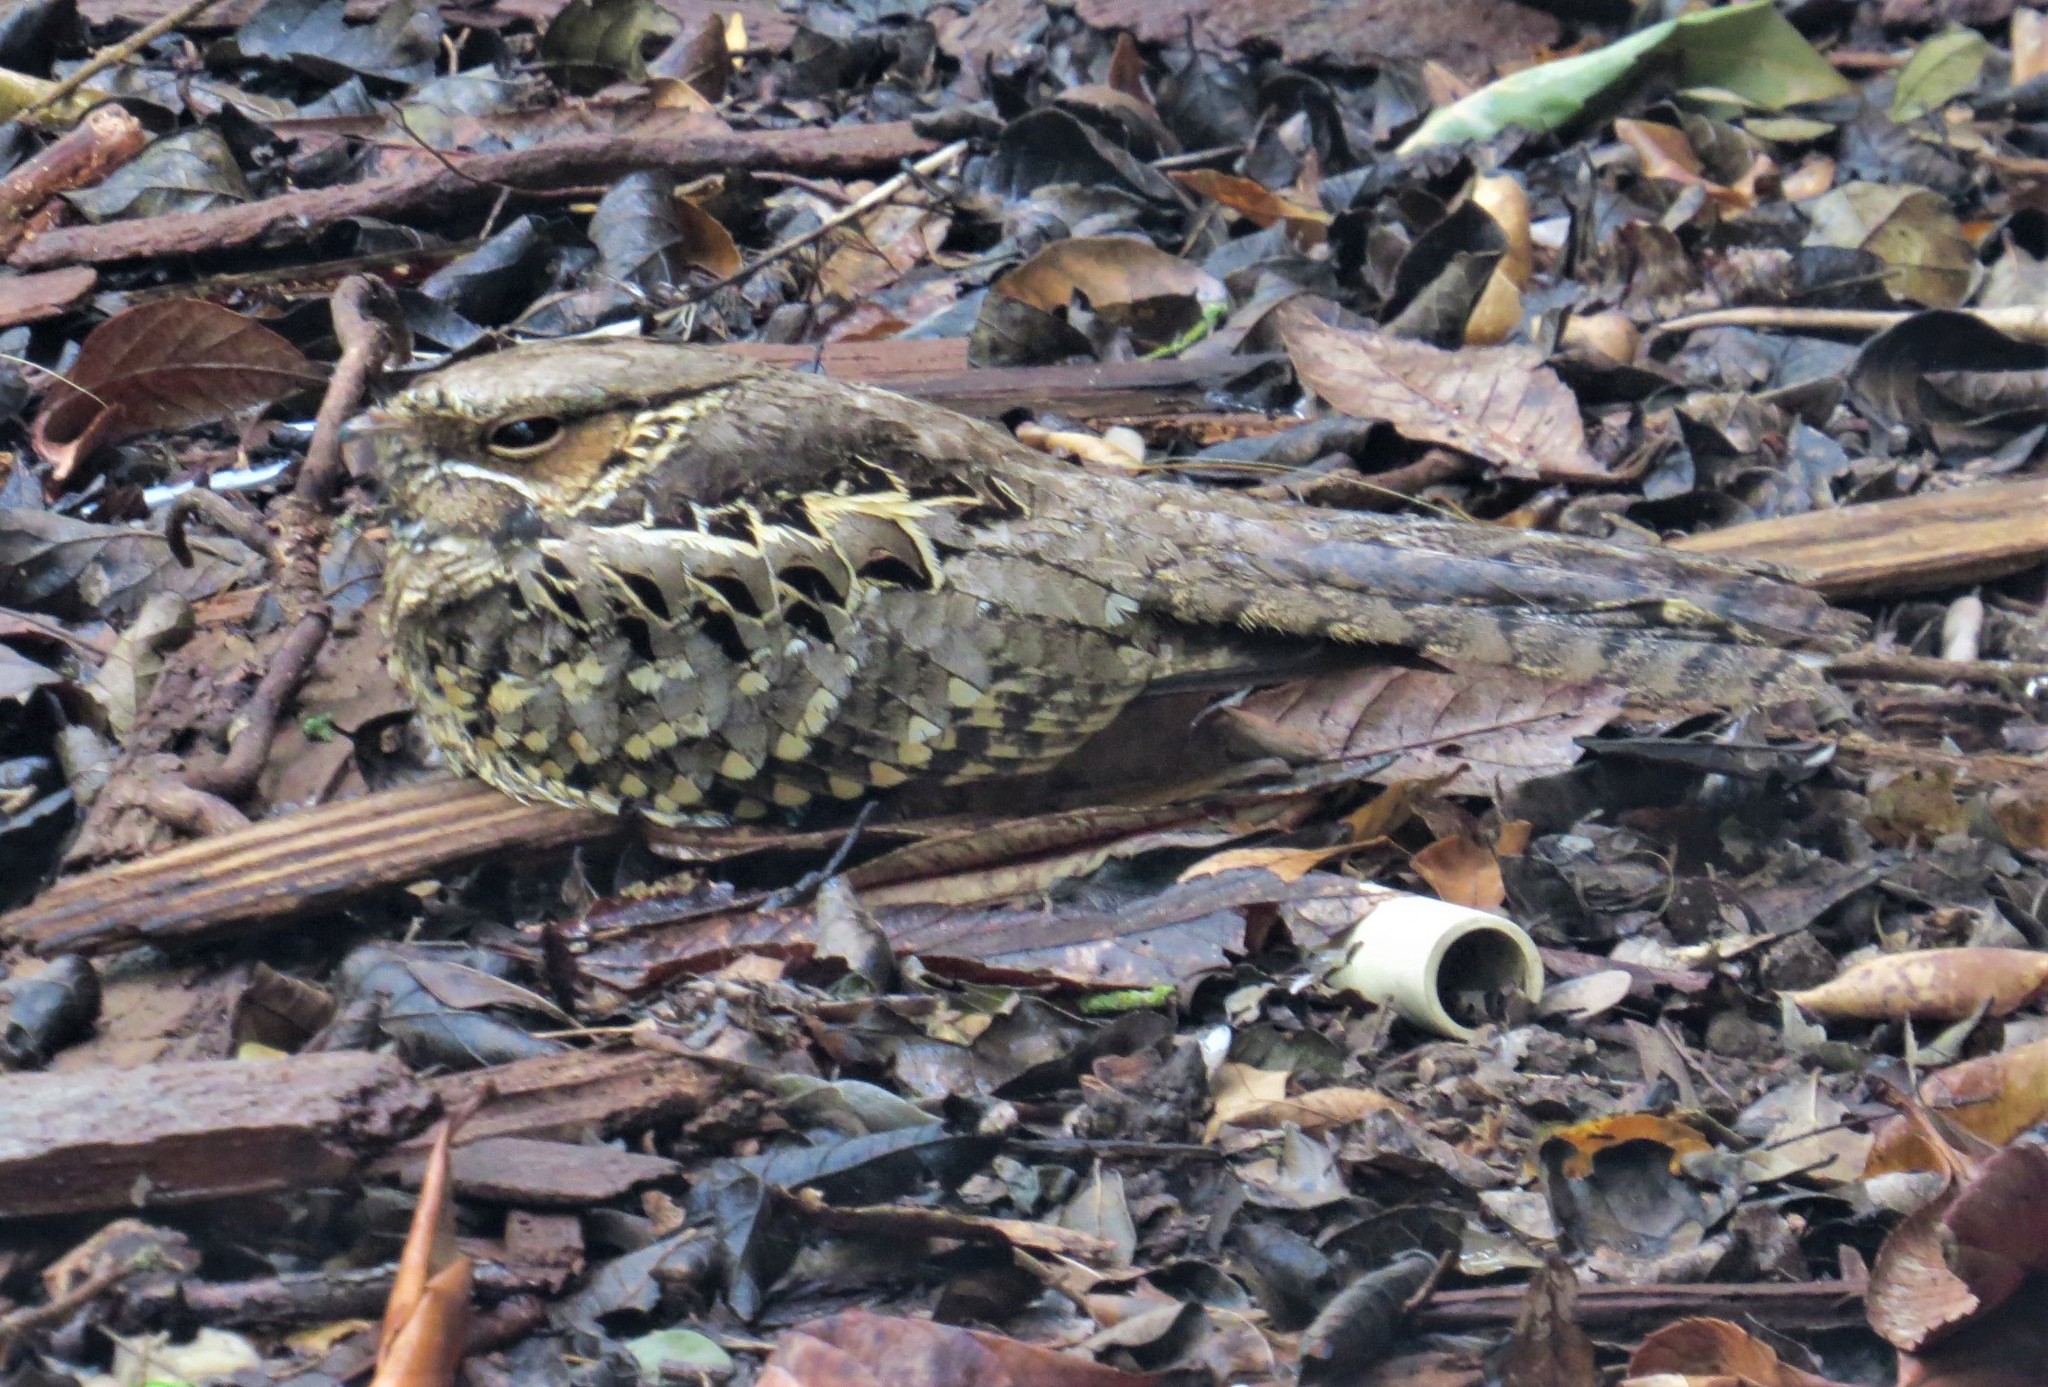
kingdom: Animalia
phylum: Chordata
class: Aves
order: Caprimulgiformes
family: Caprimulgidae
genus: Nyctidromus
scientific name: Nyctidromus albicollis
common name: Pauraque
